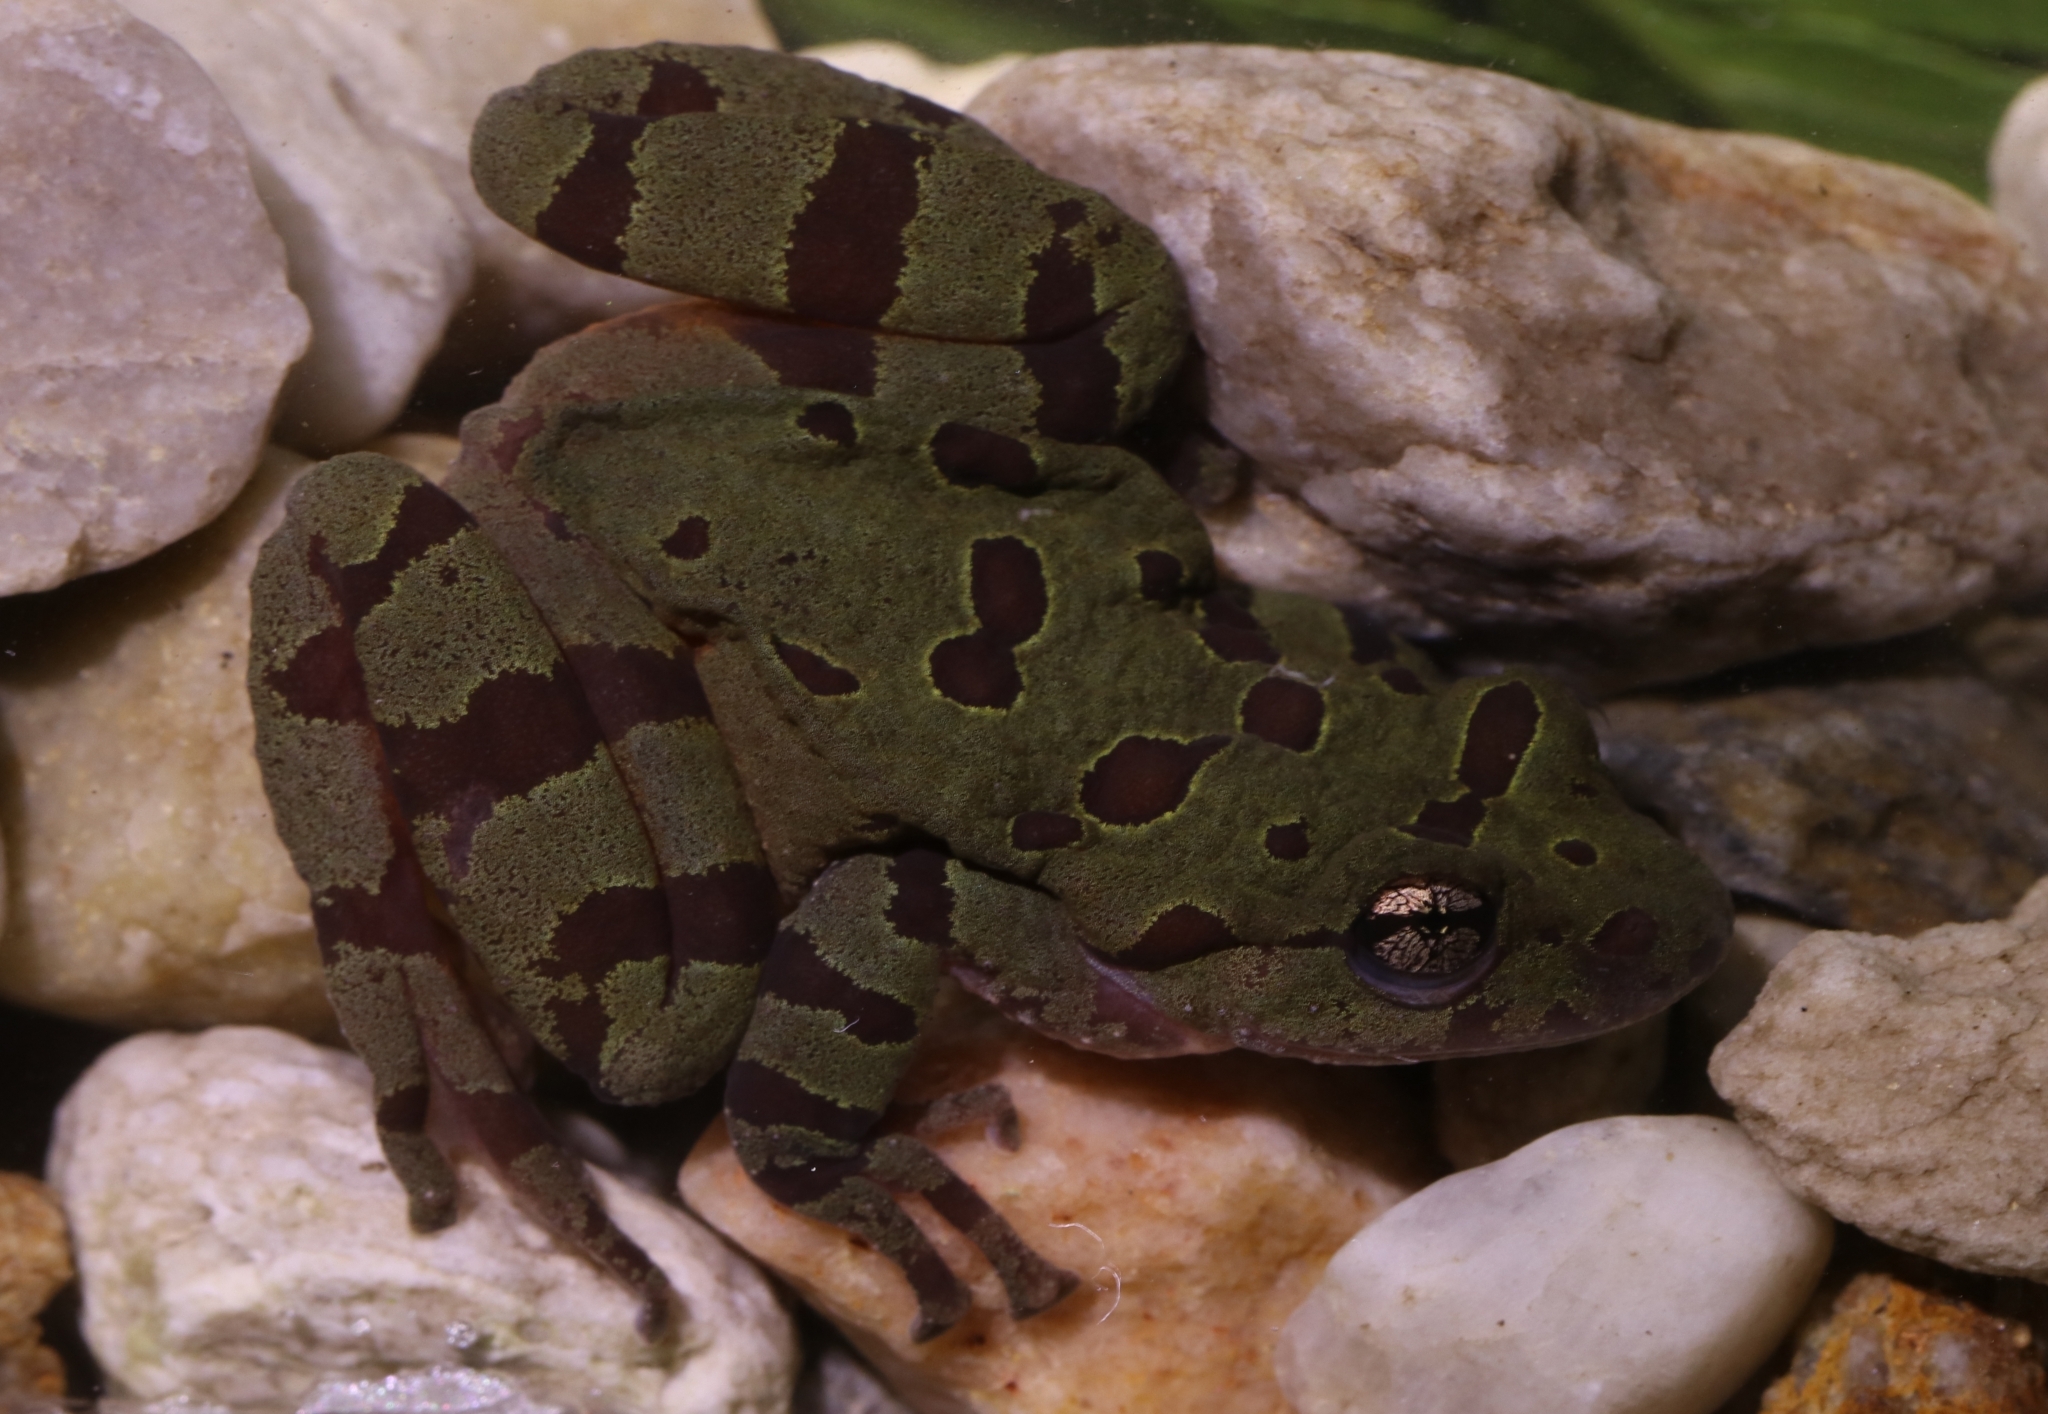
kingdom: Animalia
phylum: Chordata
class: Amphibia
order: Anura
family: Heleophrynidae
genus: Heleophryne
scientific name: Heleophryne orientalis
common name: East cape ghost frog
